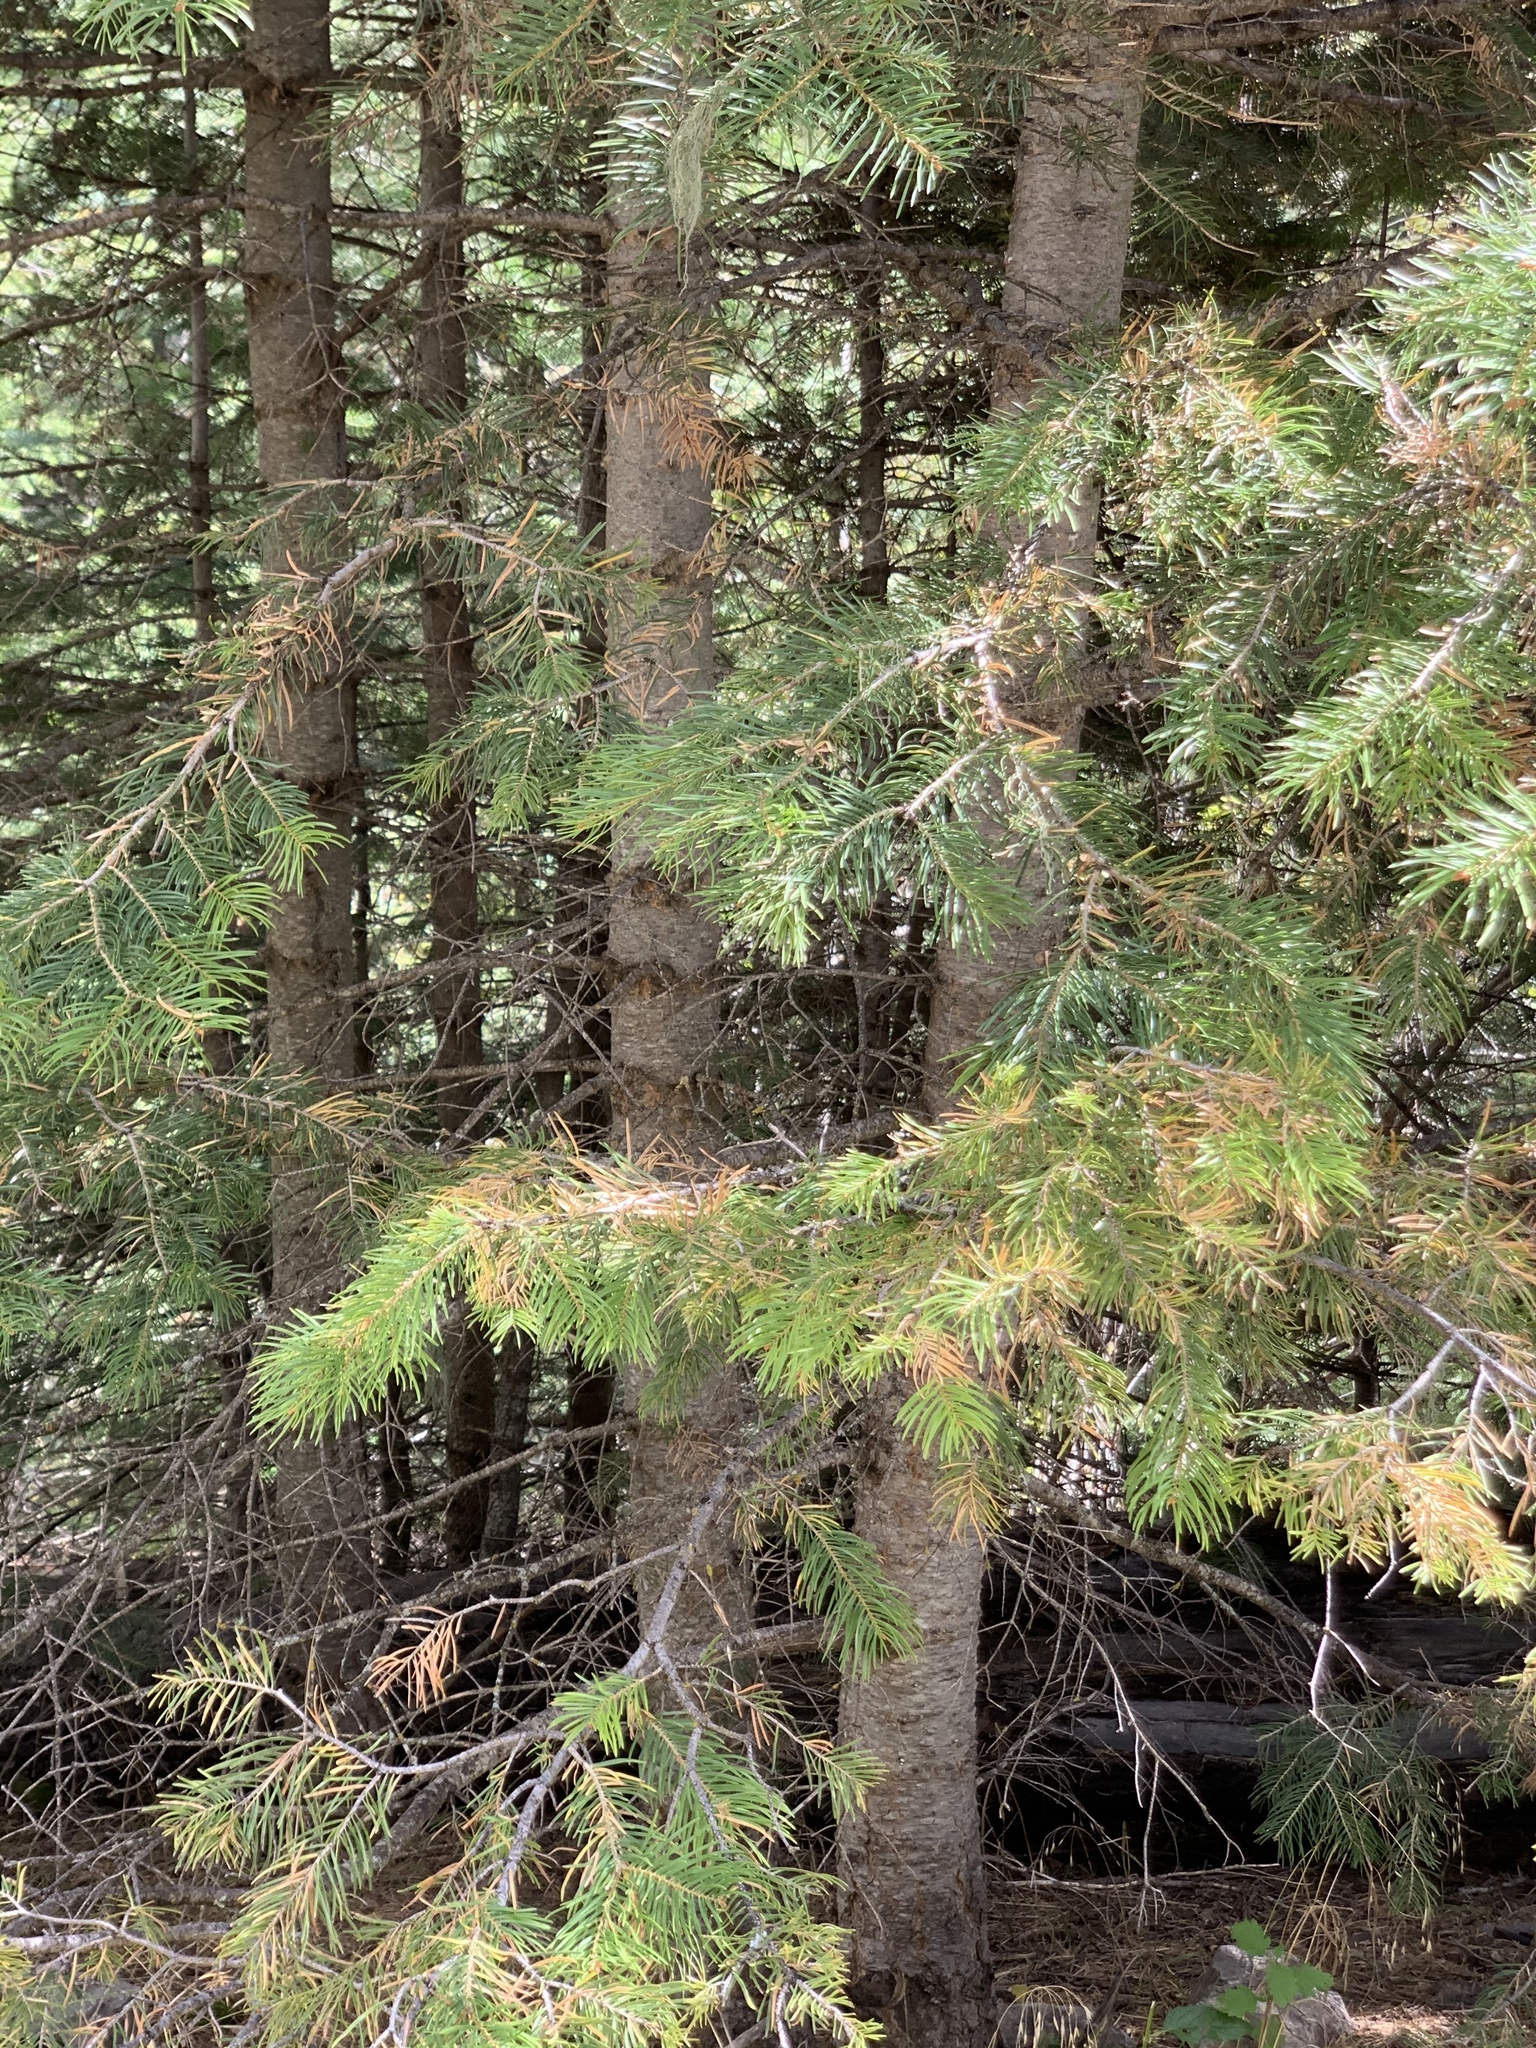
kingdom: Plantae
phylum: Tracheophyta
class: Pinopsida
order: Pinales
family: Pinaceae
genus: Abies
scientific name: Abies concolor
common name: Colorado fir
